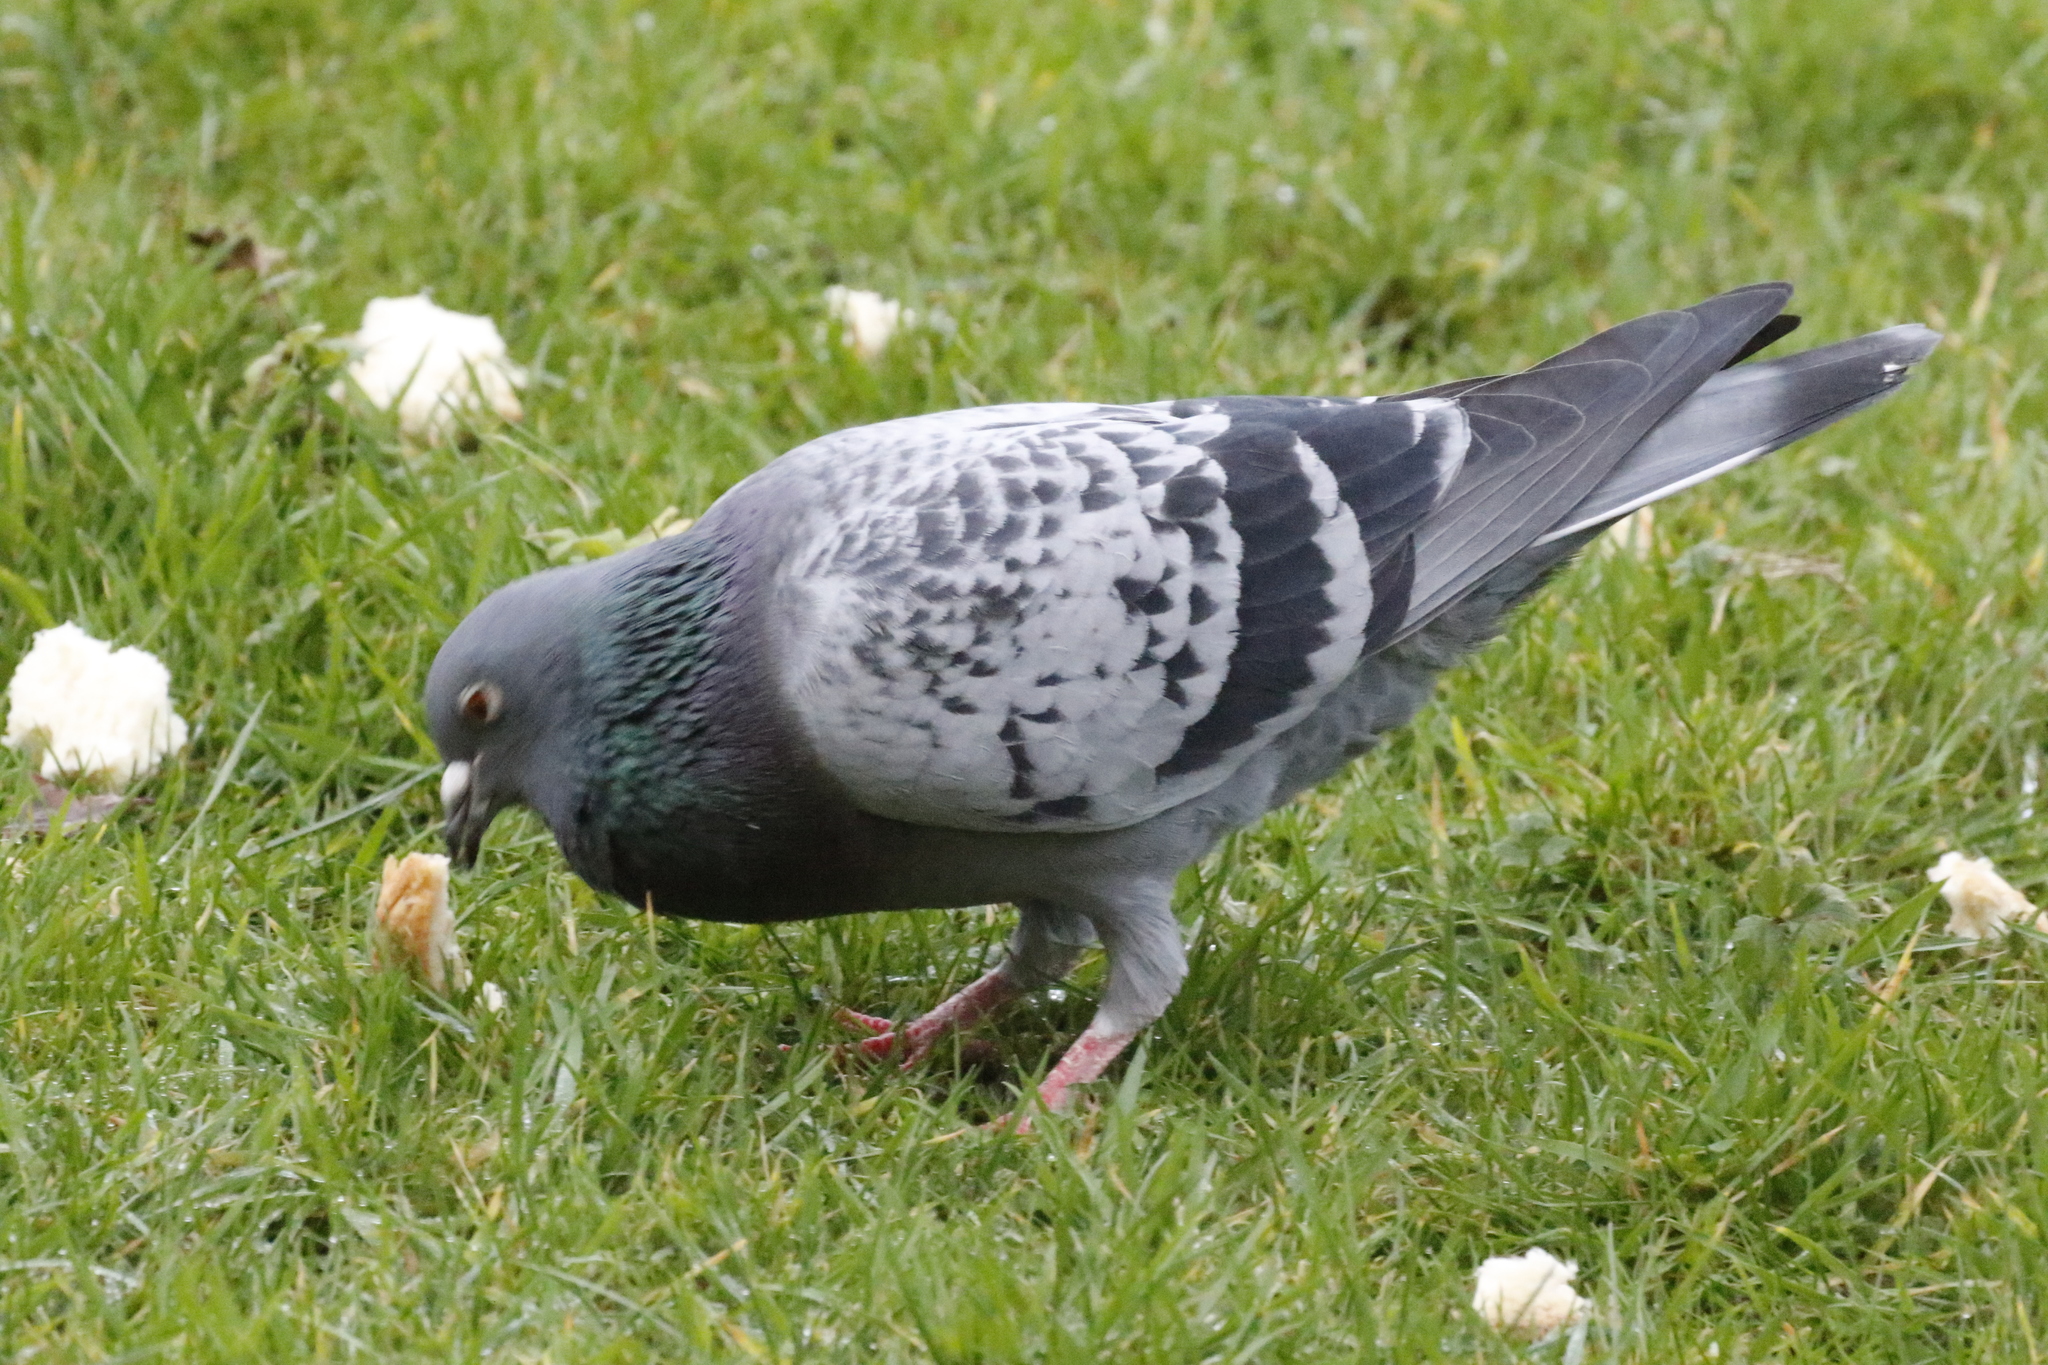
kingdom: Animalia
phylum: Chordata
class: Aves
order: Columbiformes
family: Columbidae
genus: Columba
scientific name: Columba livia
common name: Rock pigeon
